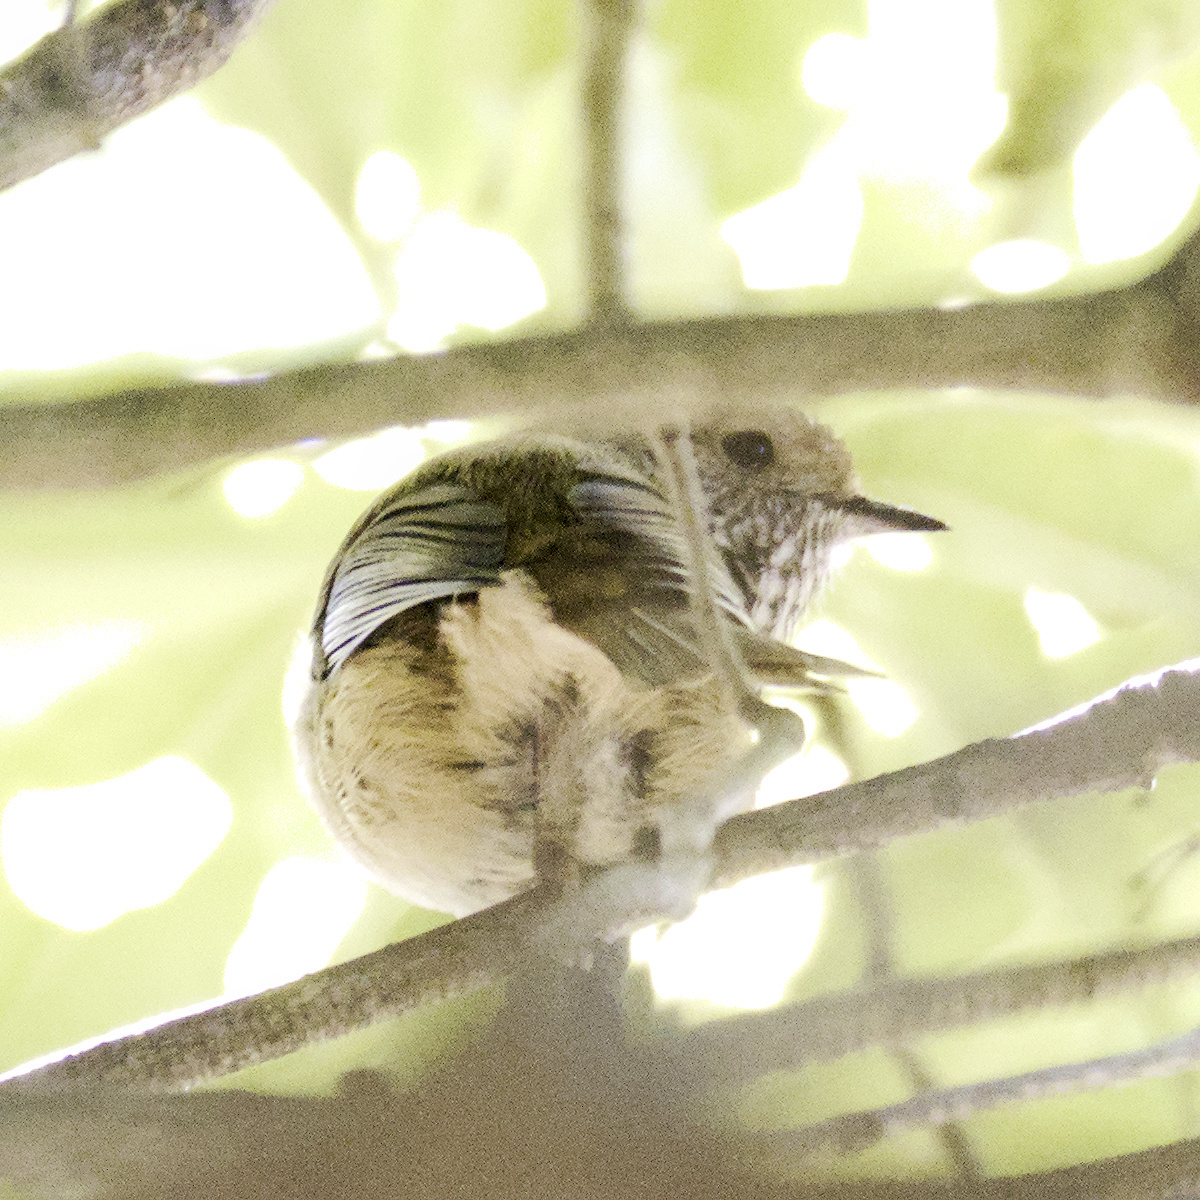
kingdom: Animalia
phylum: Chordata
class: Aves
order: Passeriformes
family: Acanthizidae
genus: Acanthiza
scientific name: Acanthiza pusilla
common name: Brown thornbill
